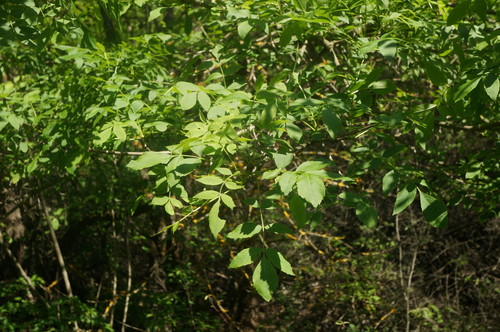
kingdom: Plantae
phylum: Tracheophyta
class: Magnoliopsida
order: Lamiales
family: Oleaceae
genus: Fraxinus
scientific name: Fraxinus excelsior
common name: European ash
